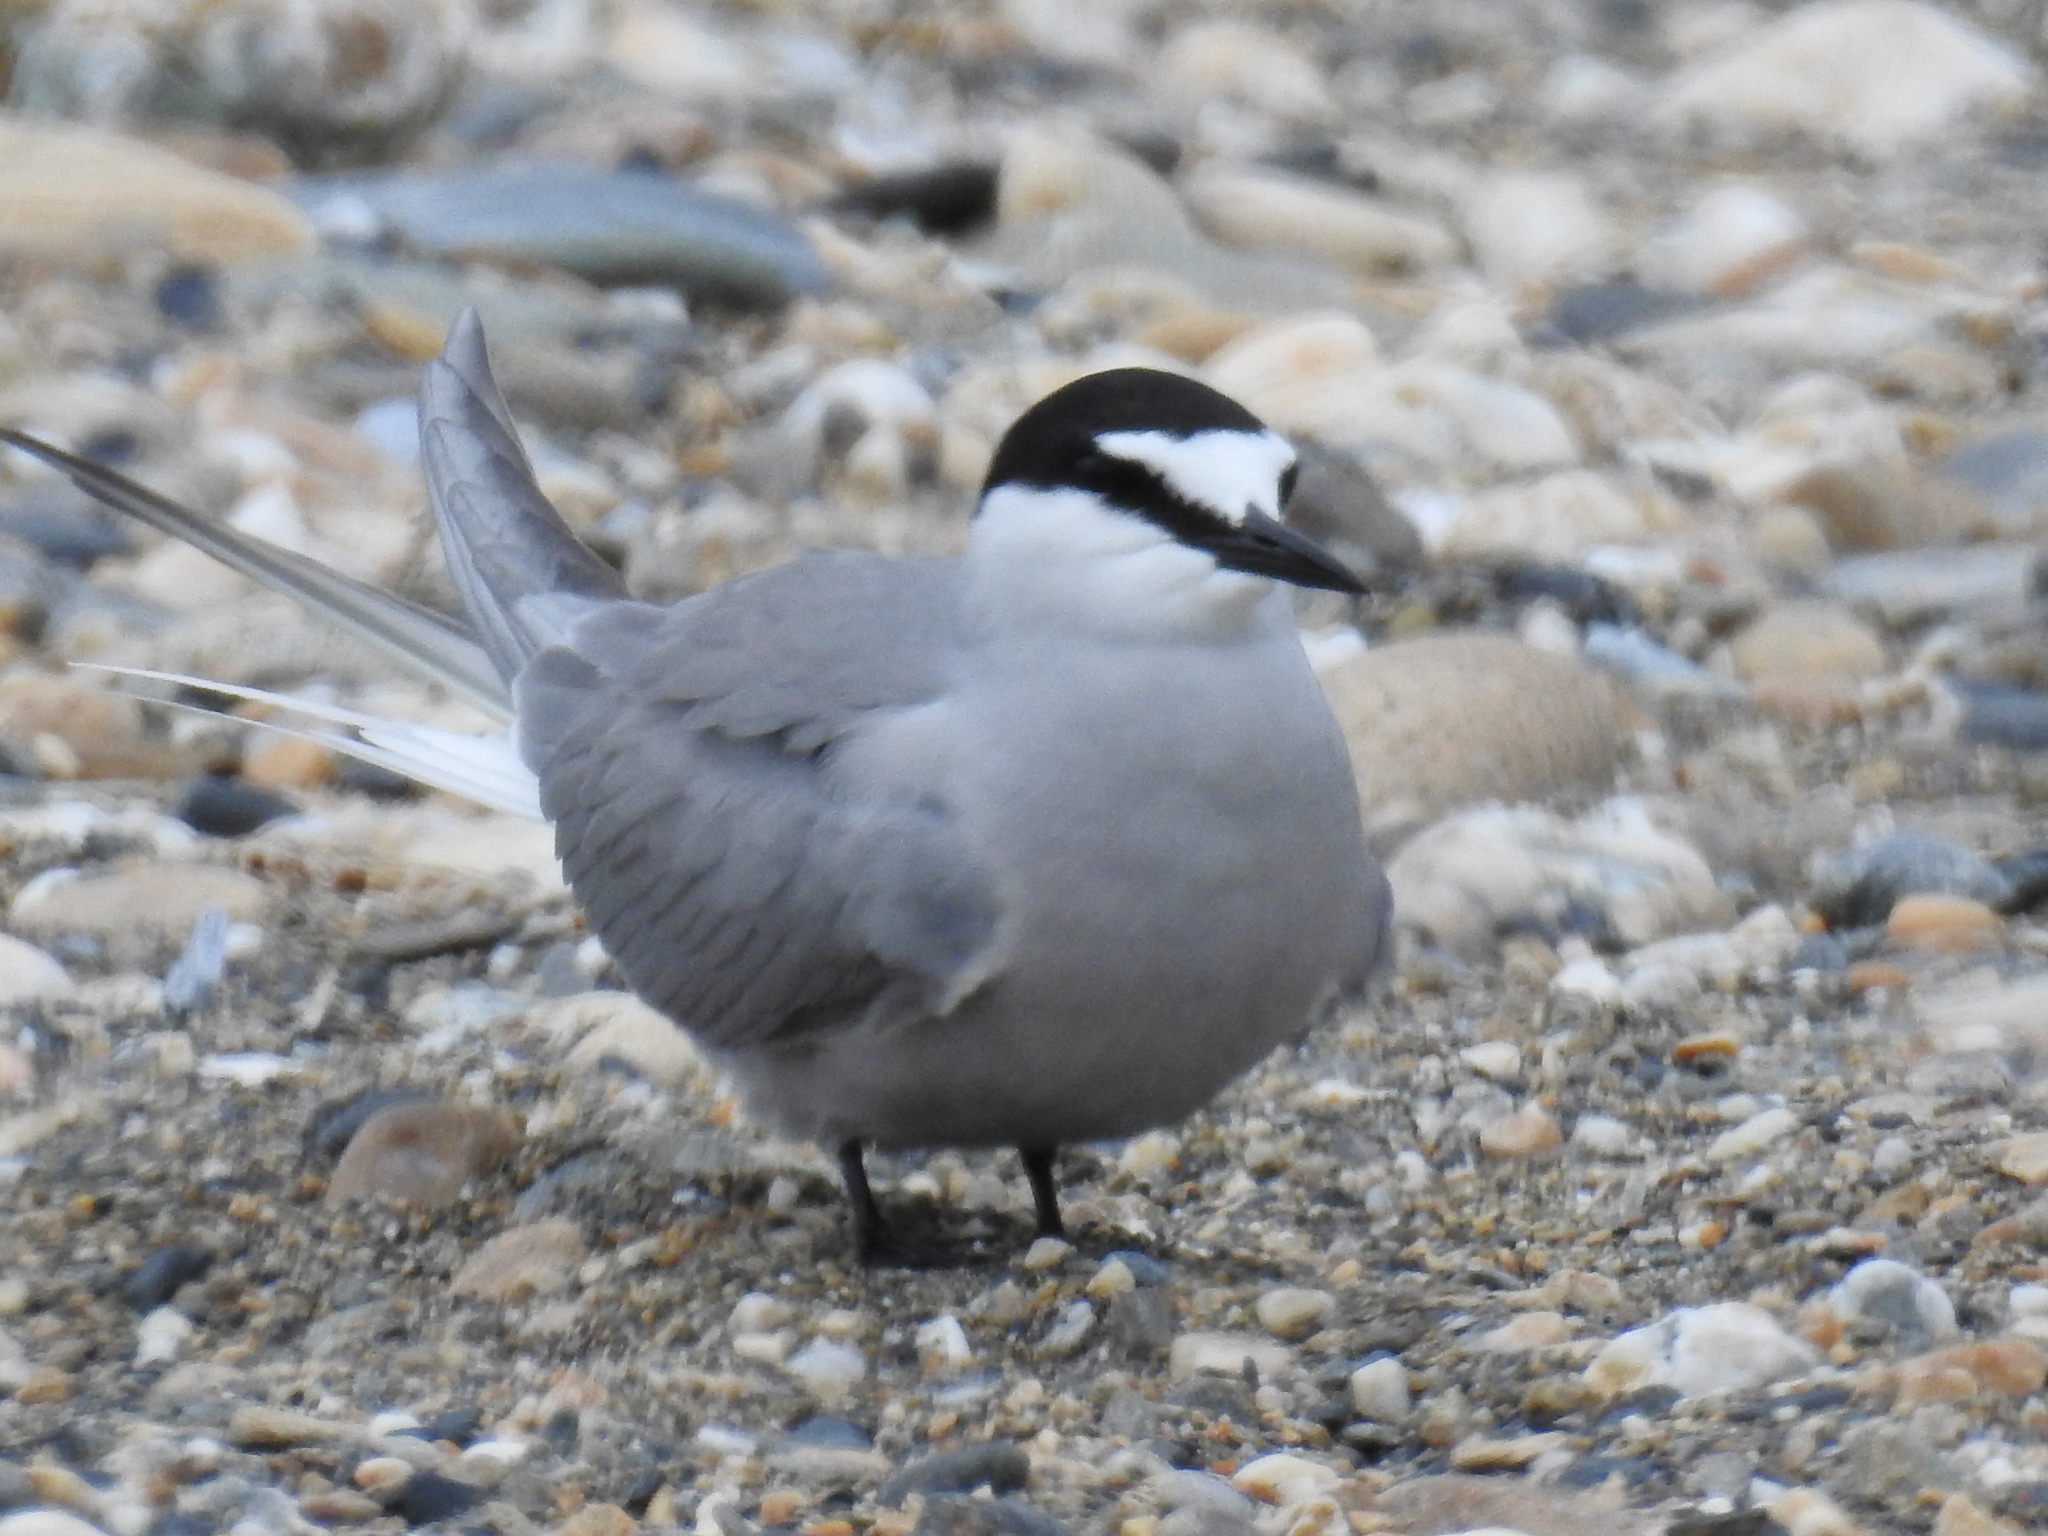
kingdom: Animalia
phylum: Chordata
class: Aves
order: Charadriiformes
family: Laridae
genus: Onychoprion
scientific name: Onychoprion aleuticus
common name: Aleutian tern
